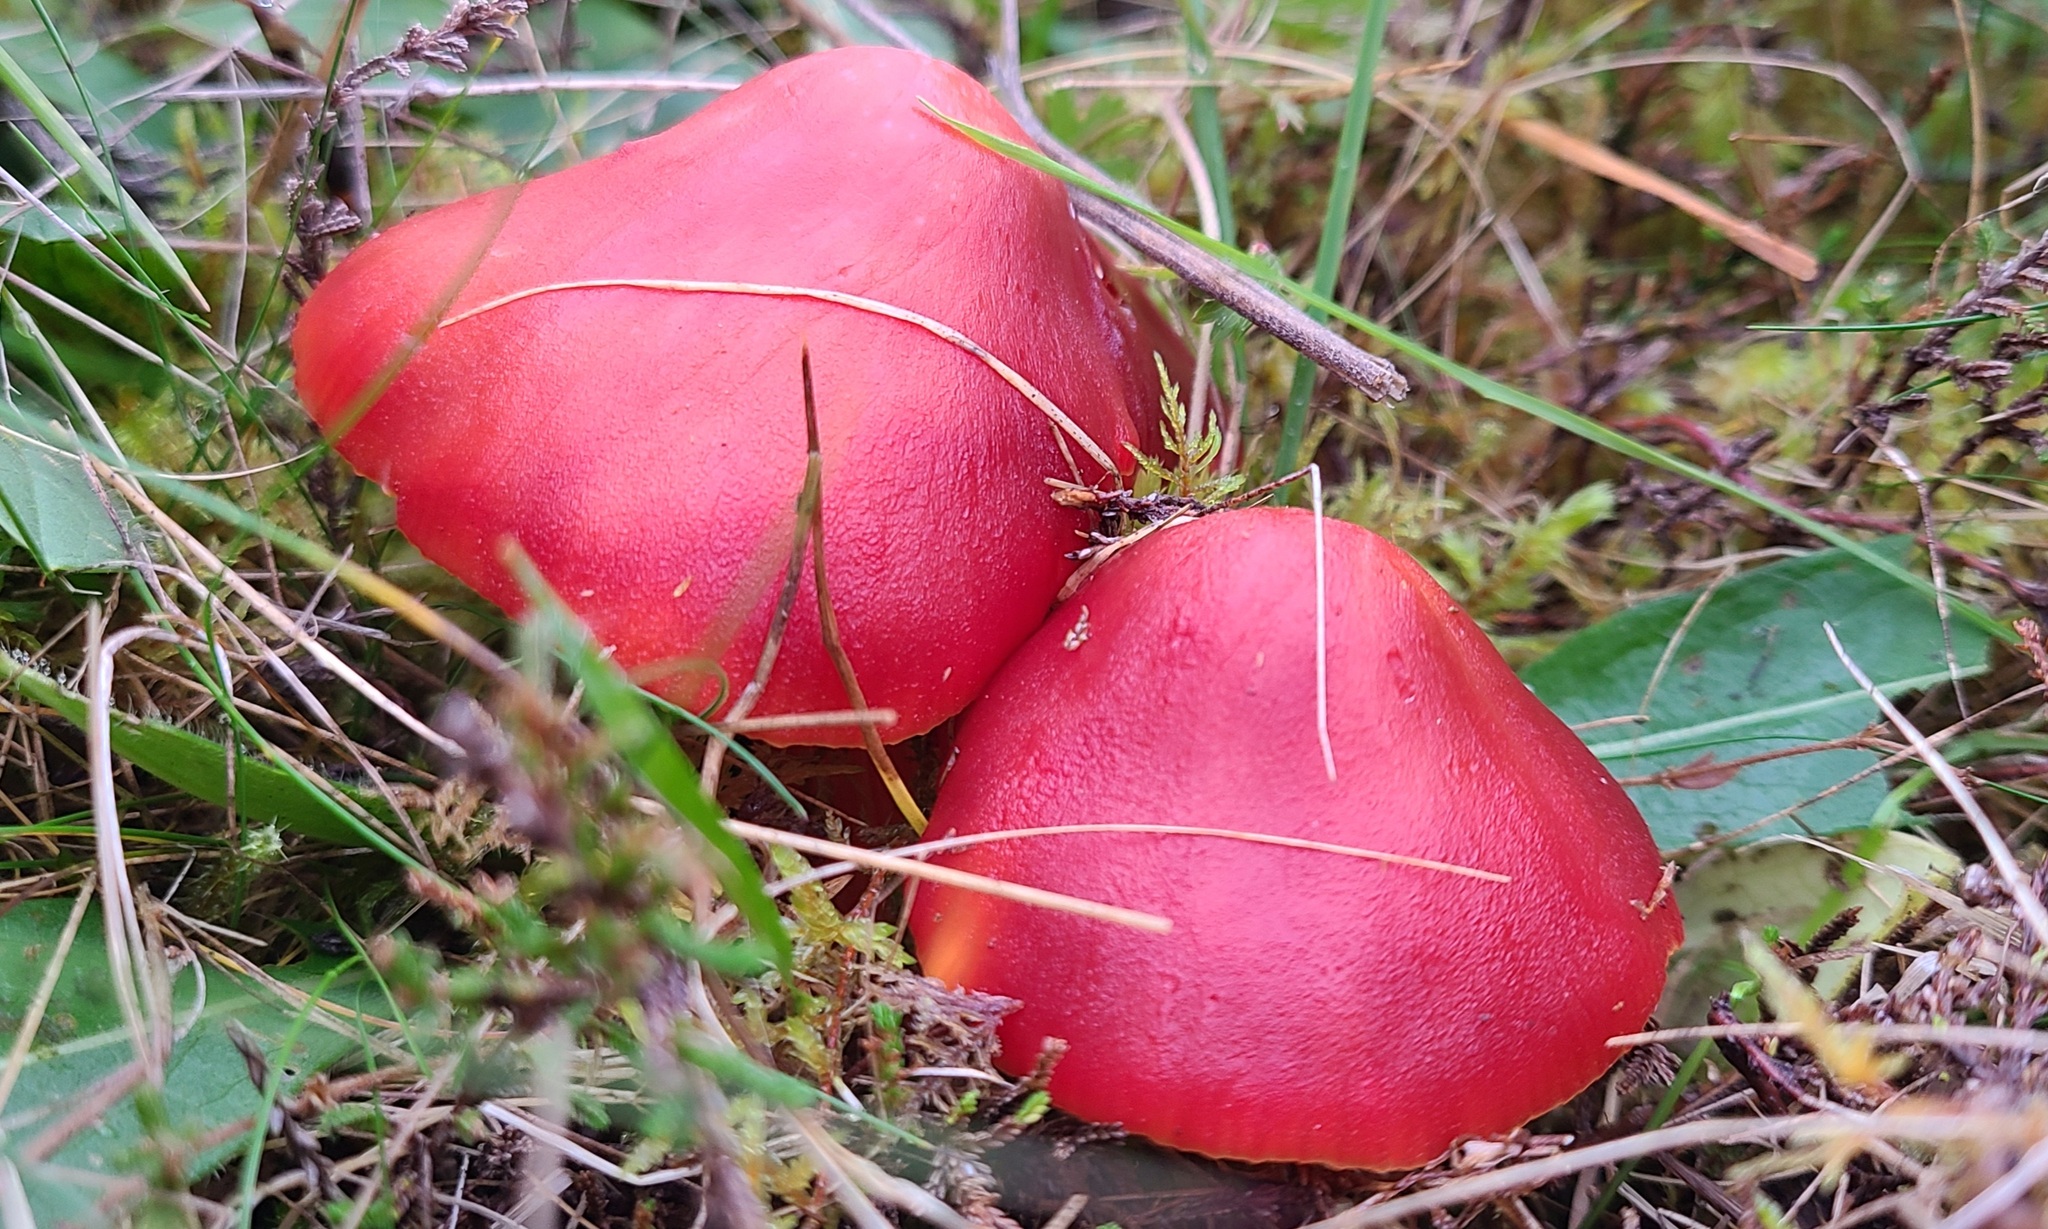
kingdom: Fungi
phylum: Basidiomycota
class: Agaricomycetes
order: Agaricales
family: Hygrophoraceae
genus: Hygrocybe
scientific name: Hygrocybe punicea
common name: Crimson waxcap
